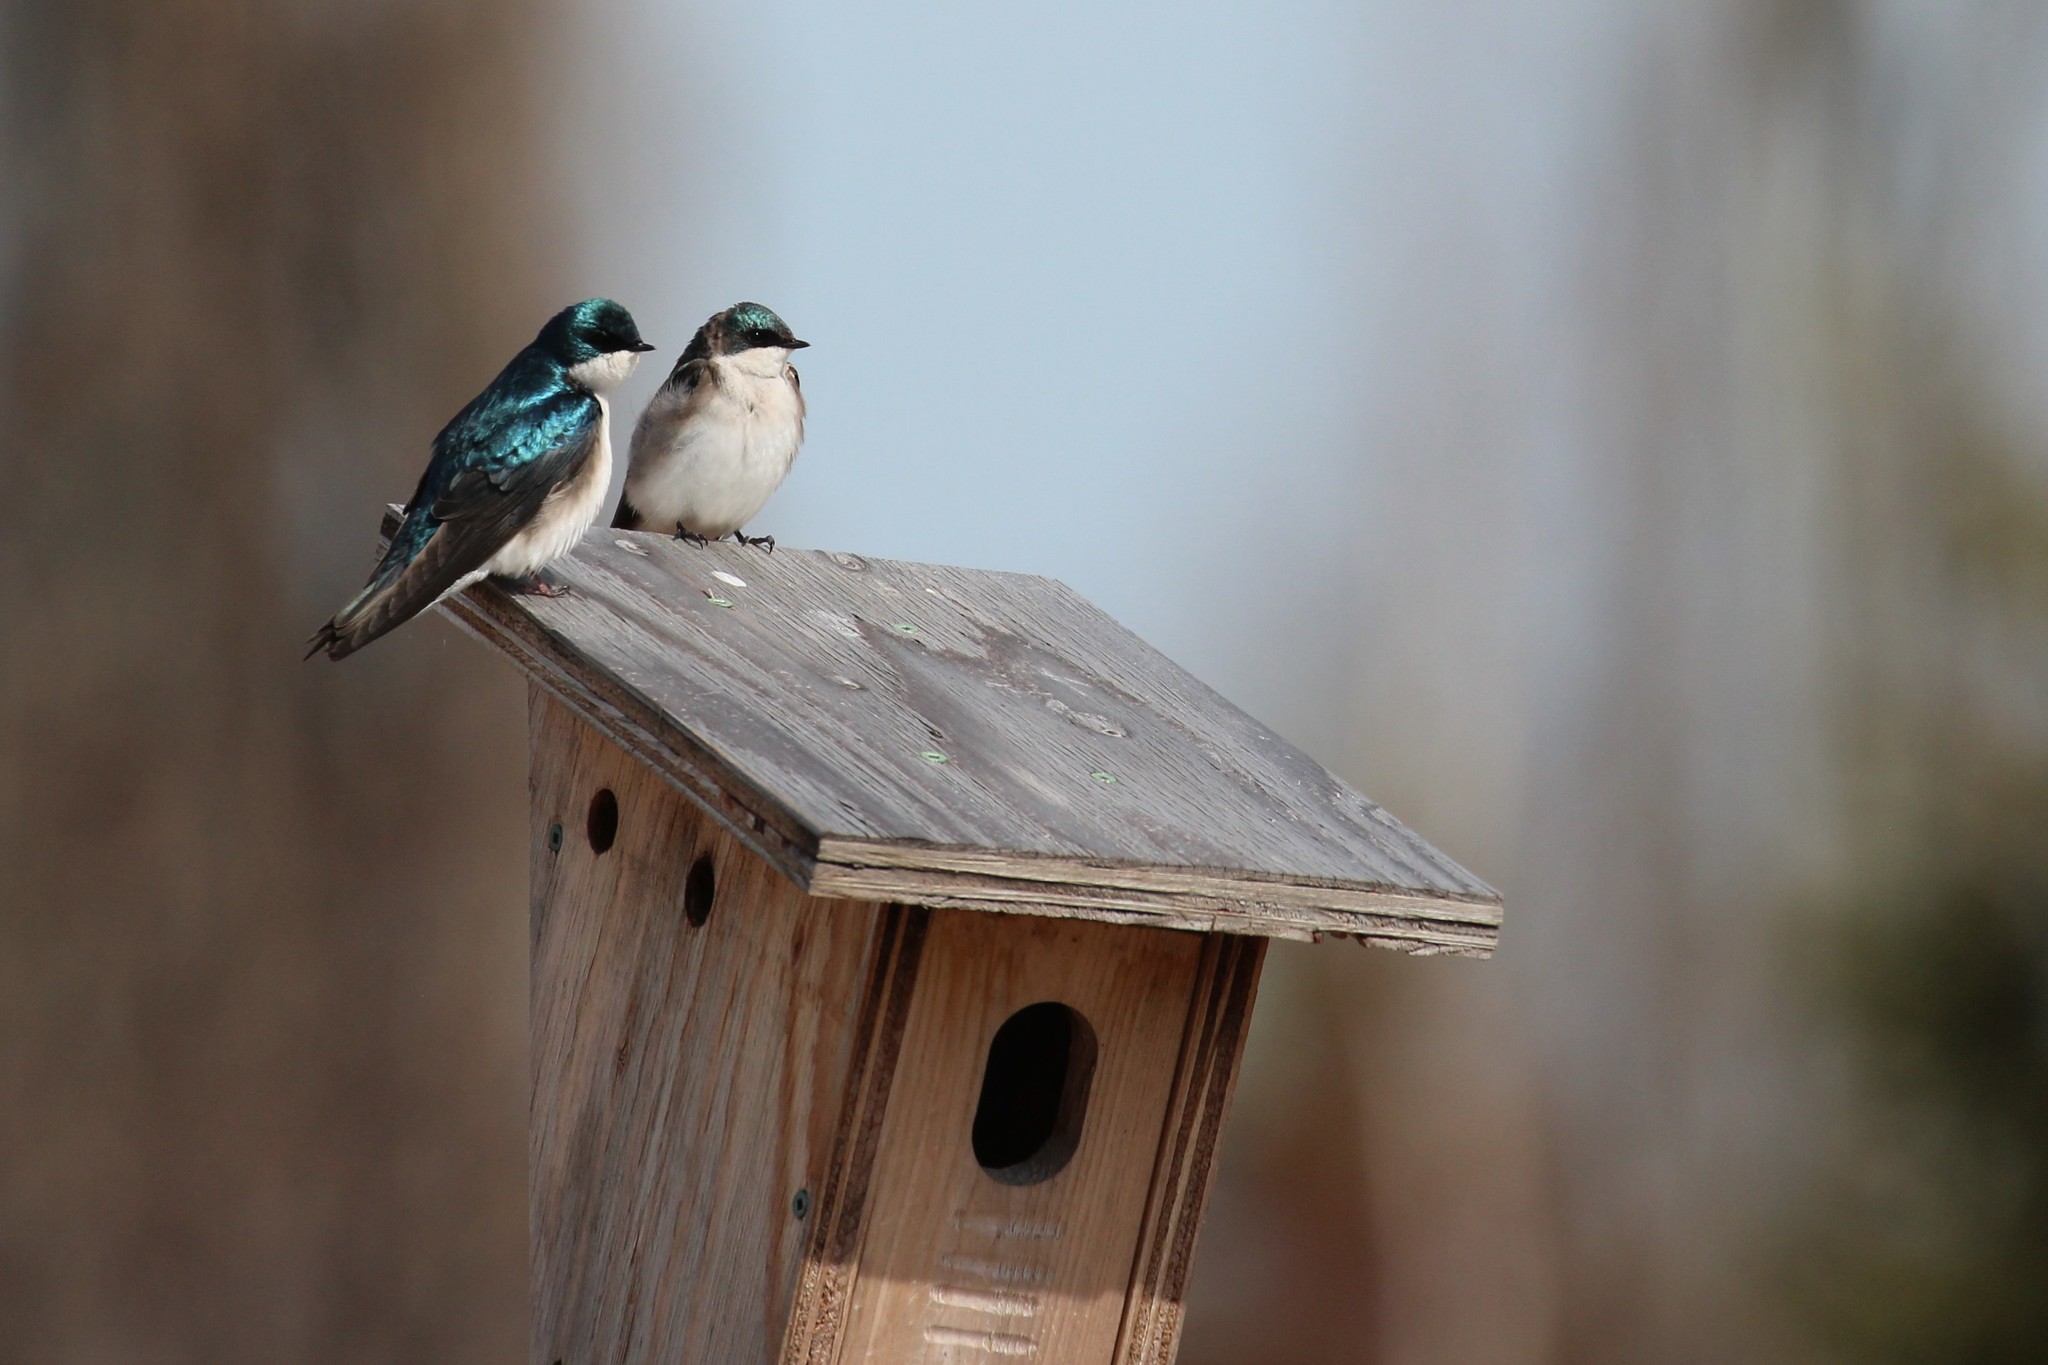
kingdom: Animalia
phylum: Chordata
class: Aves
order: Passeriformes
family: Hirundinidae
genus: Tachycineta
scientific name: Tachycineta bicolor
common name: Tree swallow
